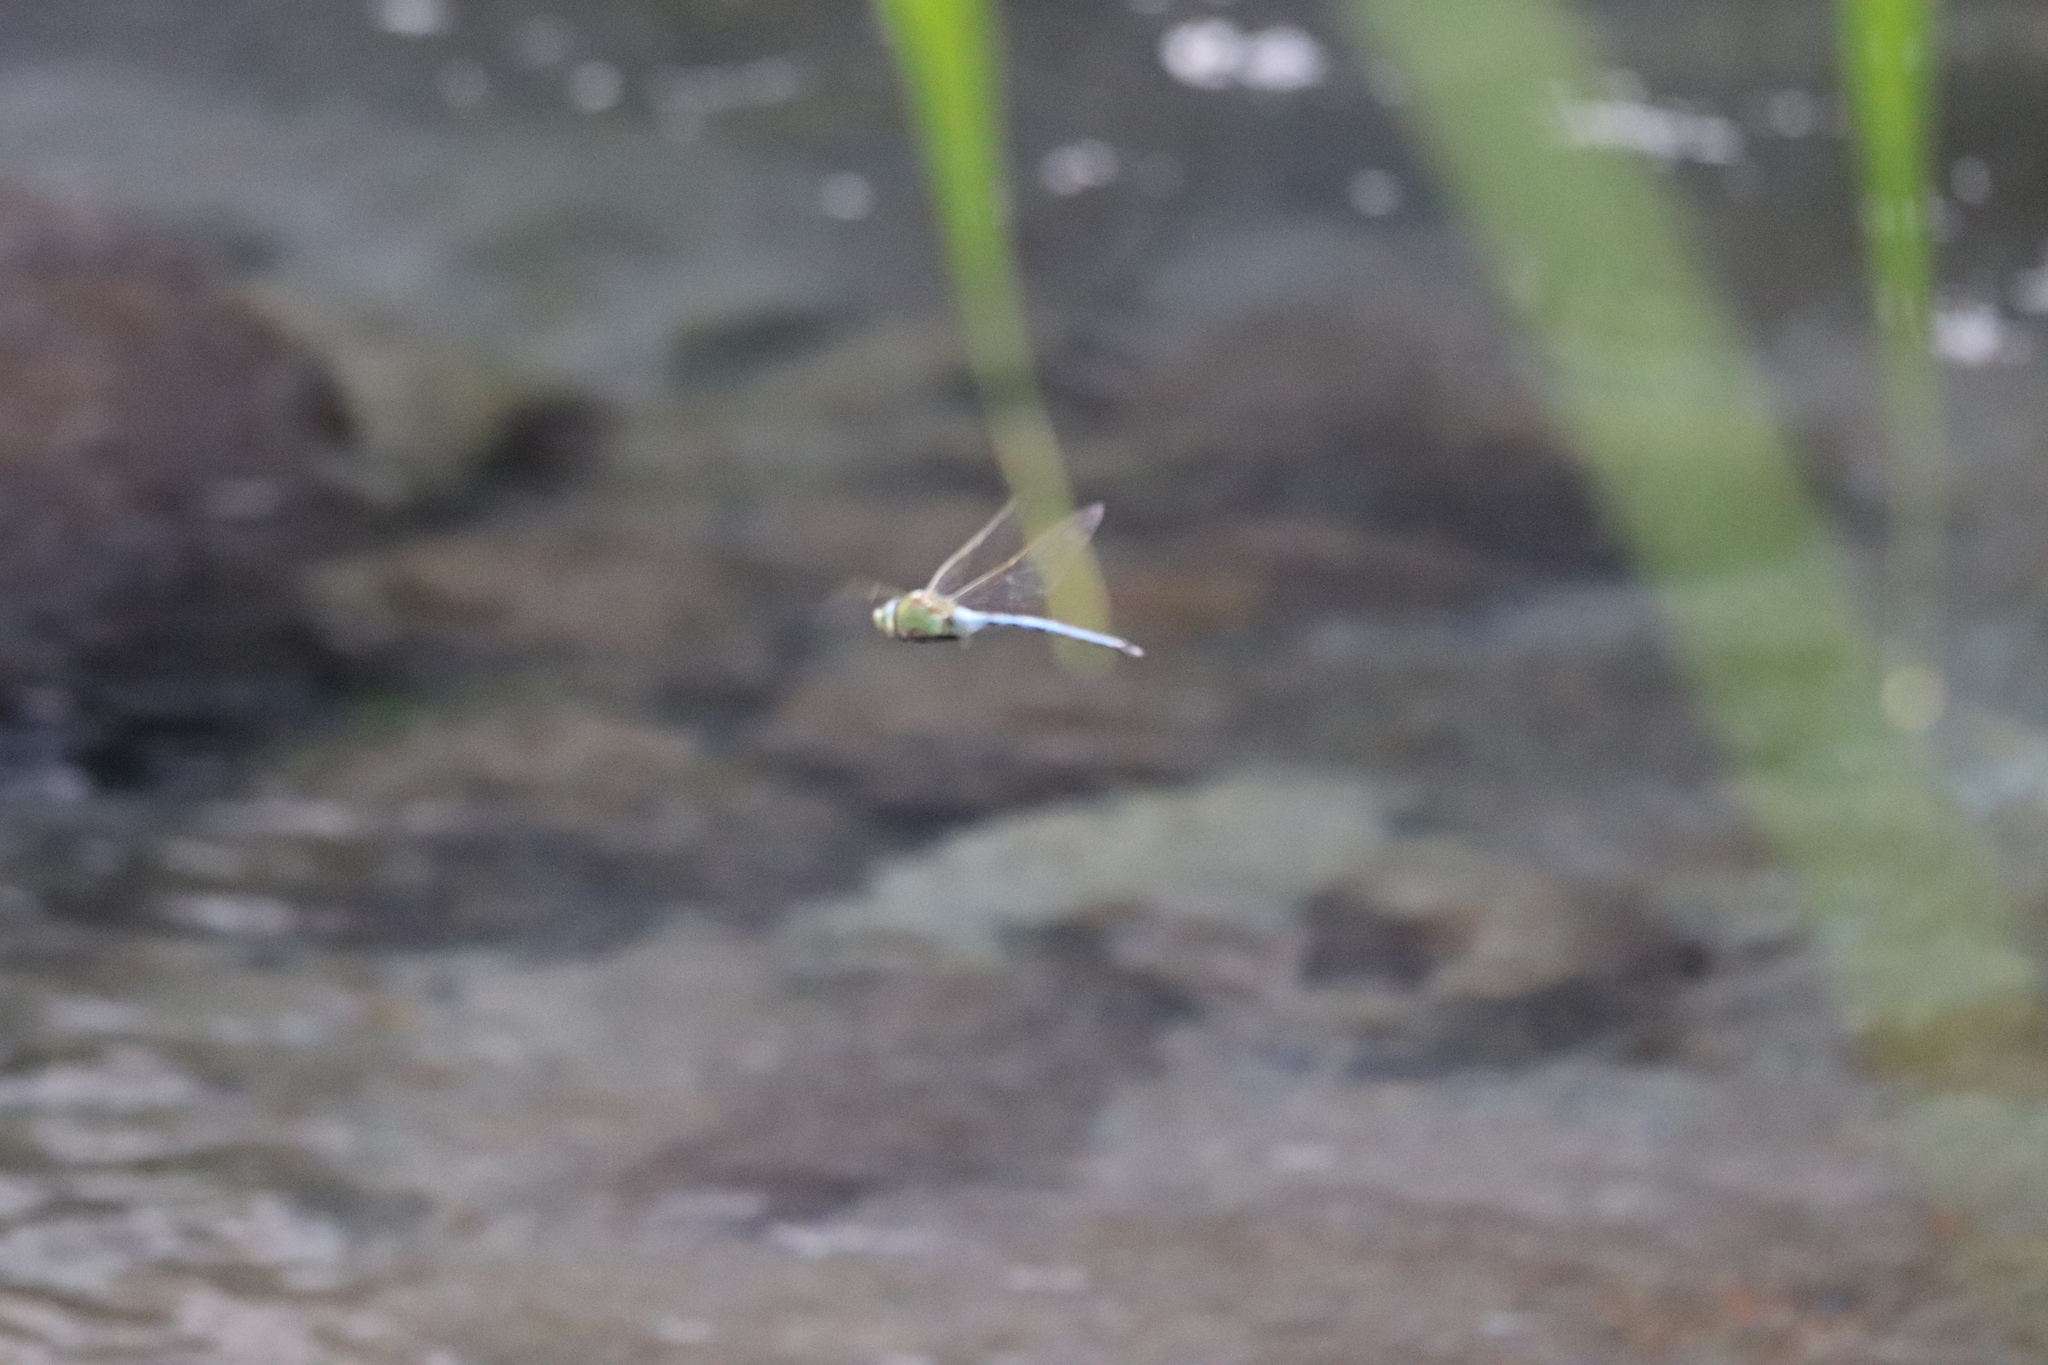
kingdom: Animalia
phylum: Arthropoda
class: Insecta
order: Odonata
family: Aeshnidae
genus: Anax
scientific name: Anax imperator
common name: Emperor dragonfly
